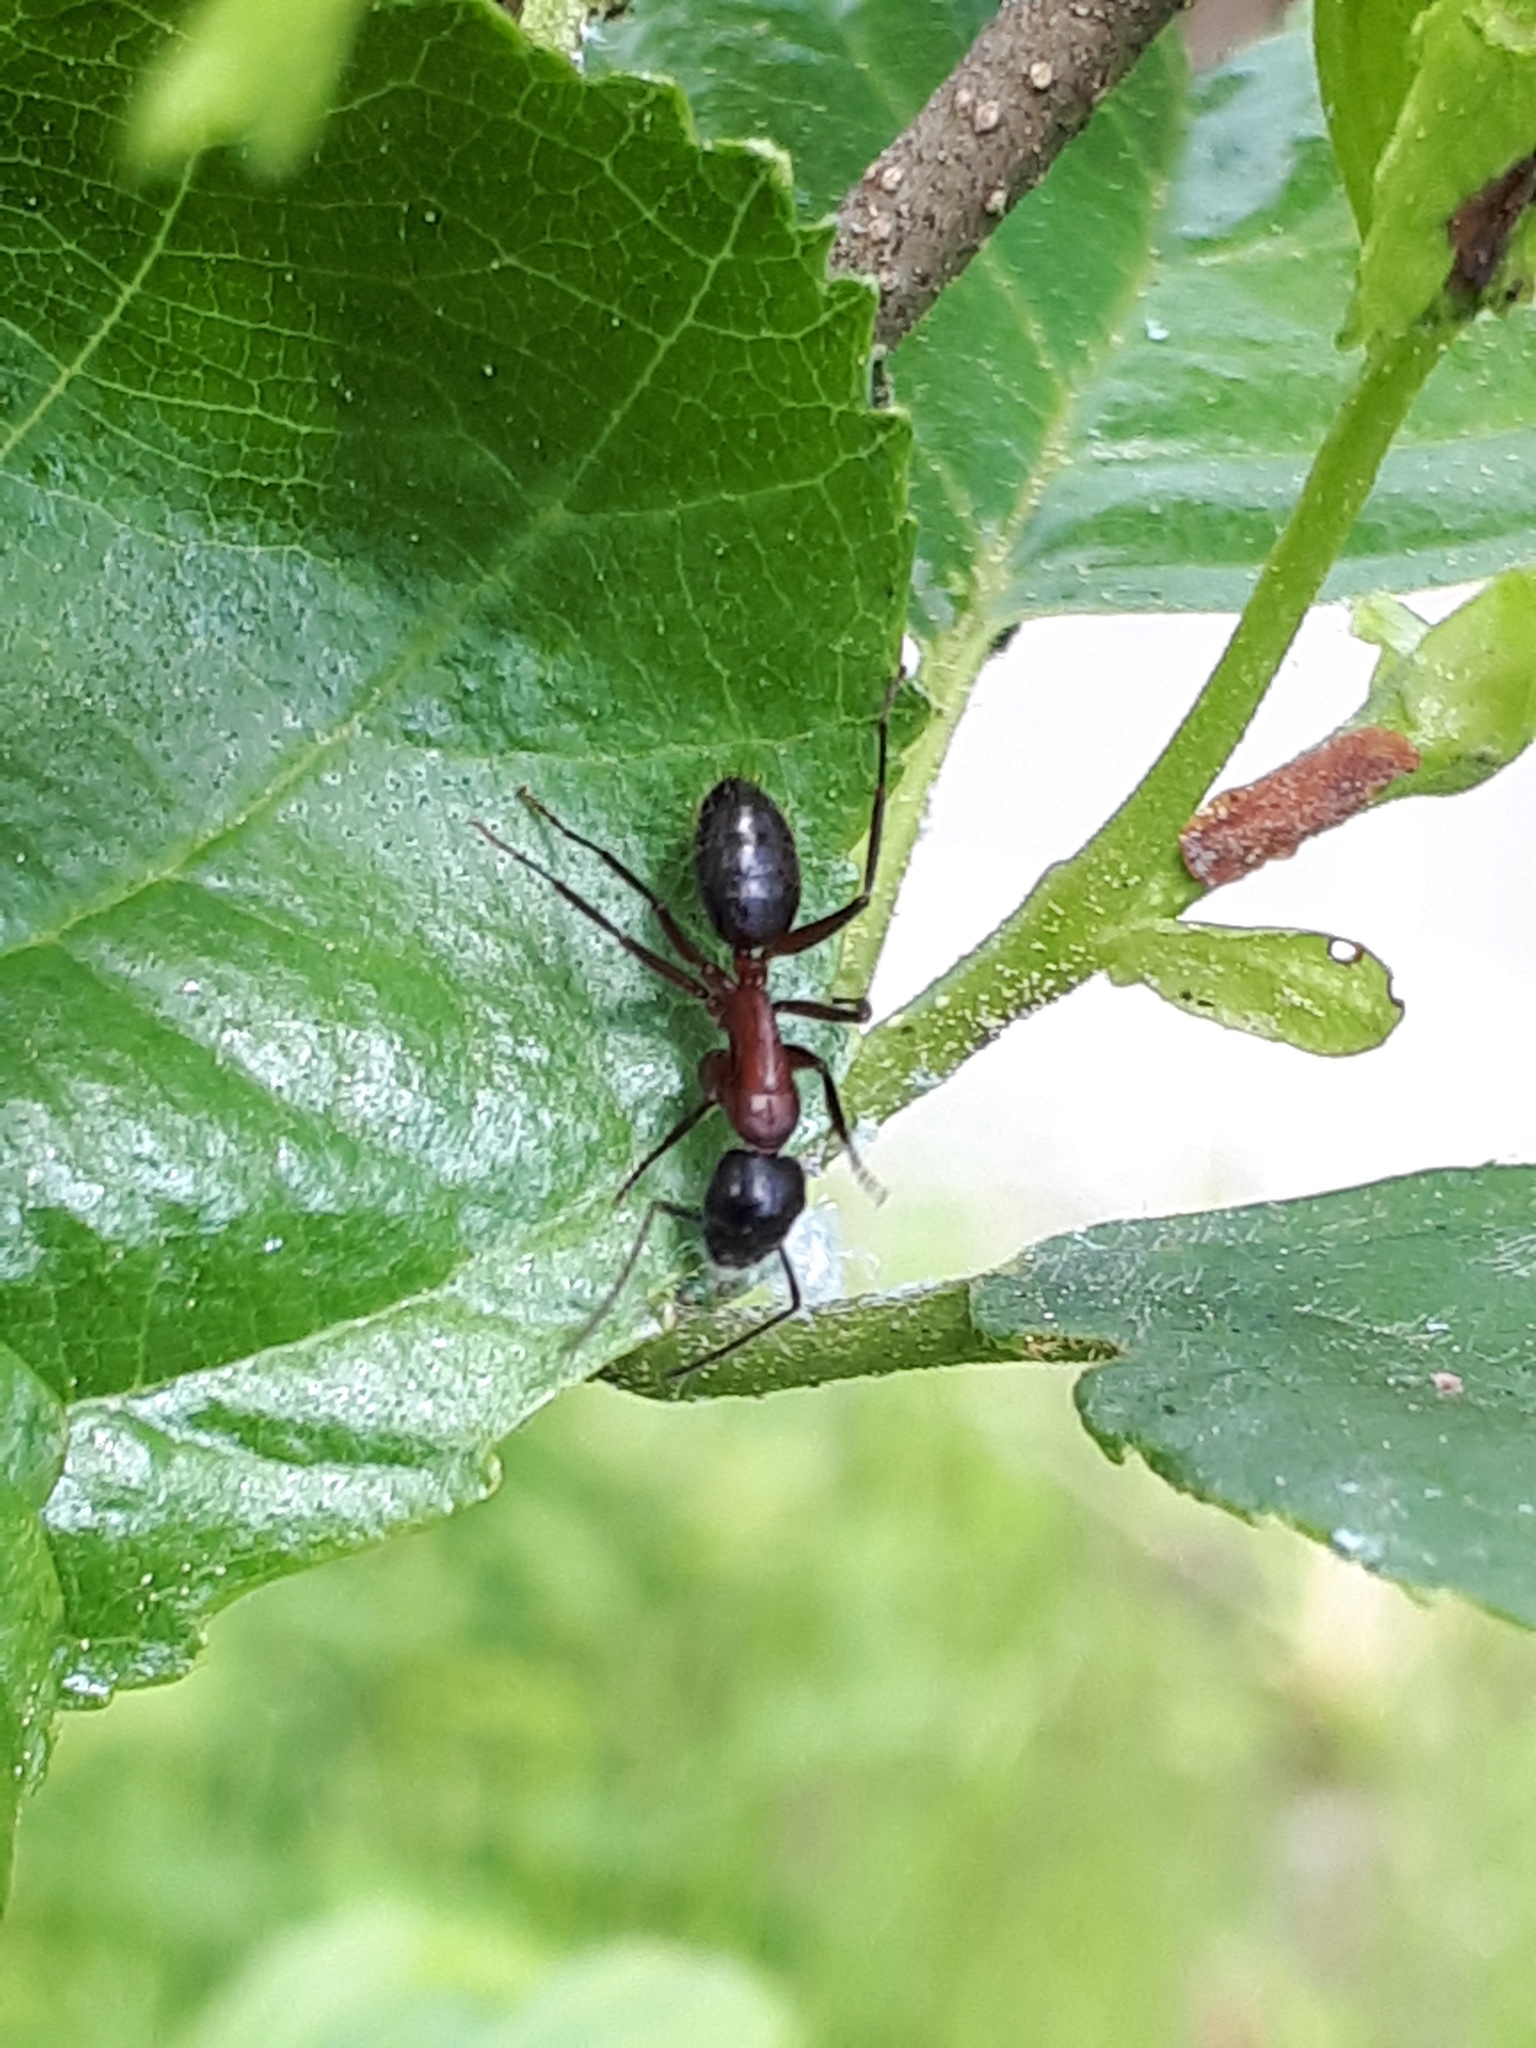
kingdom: Animalia
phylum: Arthropoda
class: Insecta
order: Hymenoptera
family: Formicidae
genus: Camponotus
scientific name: Camponotus herculeanus
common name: Hercules ant
